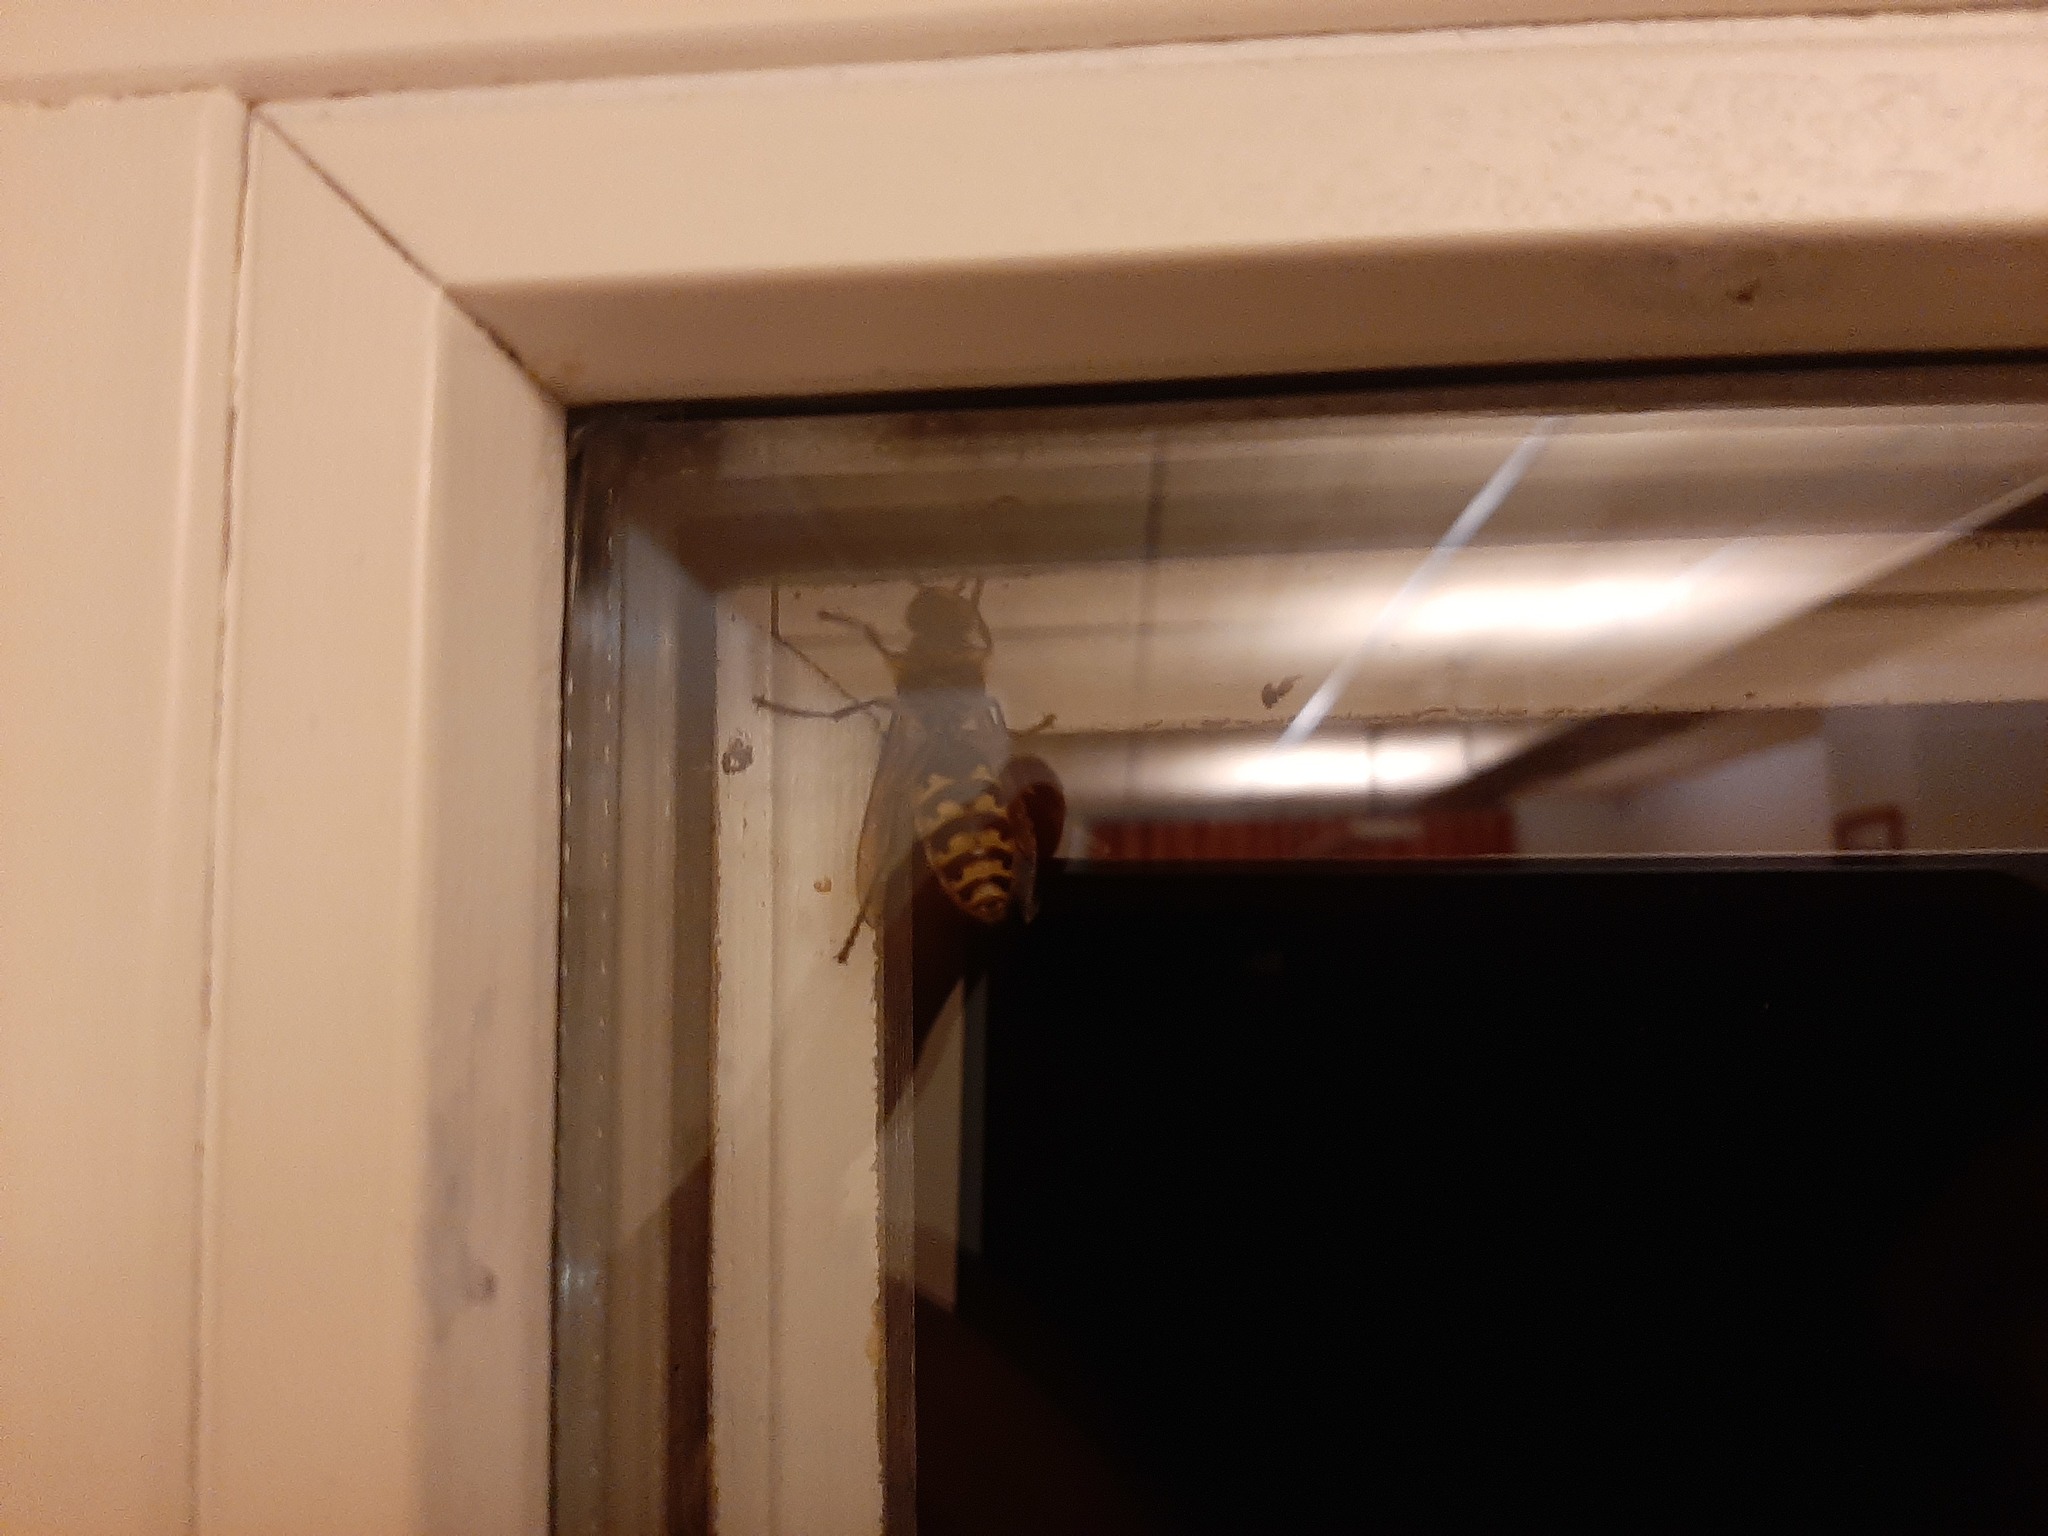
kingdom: Animalia
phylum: Arthropoda
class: Insecta
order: Hymenoptera
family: Vespidae
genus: Vespa
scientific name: Vespa crabro
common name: Hornet
